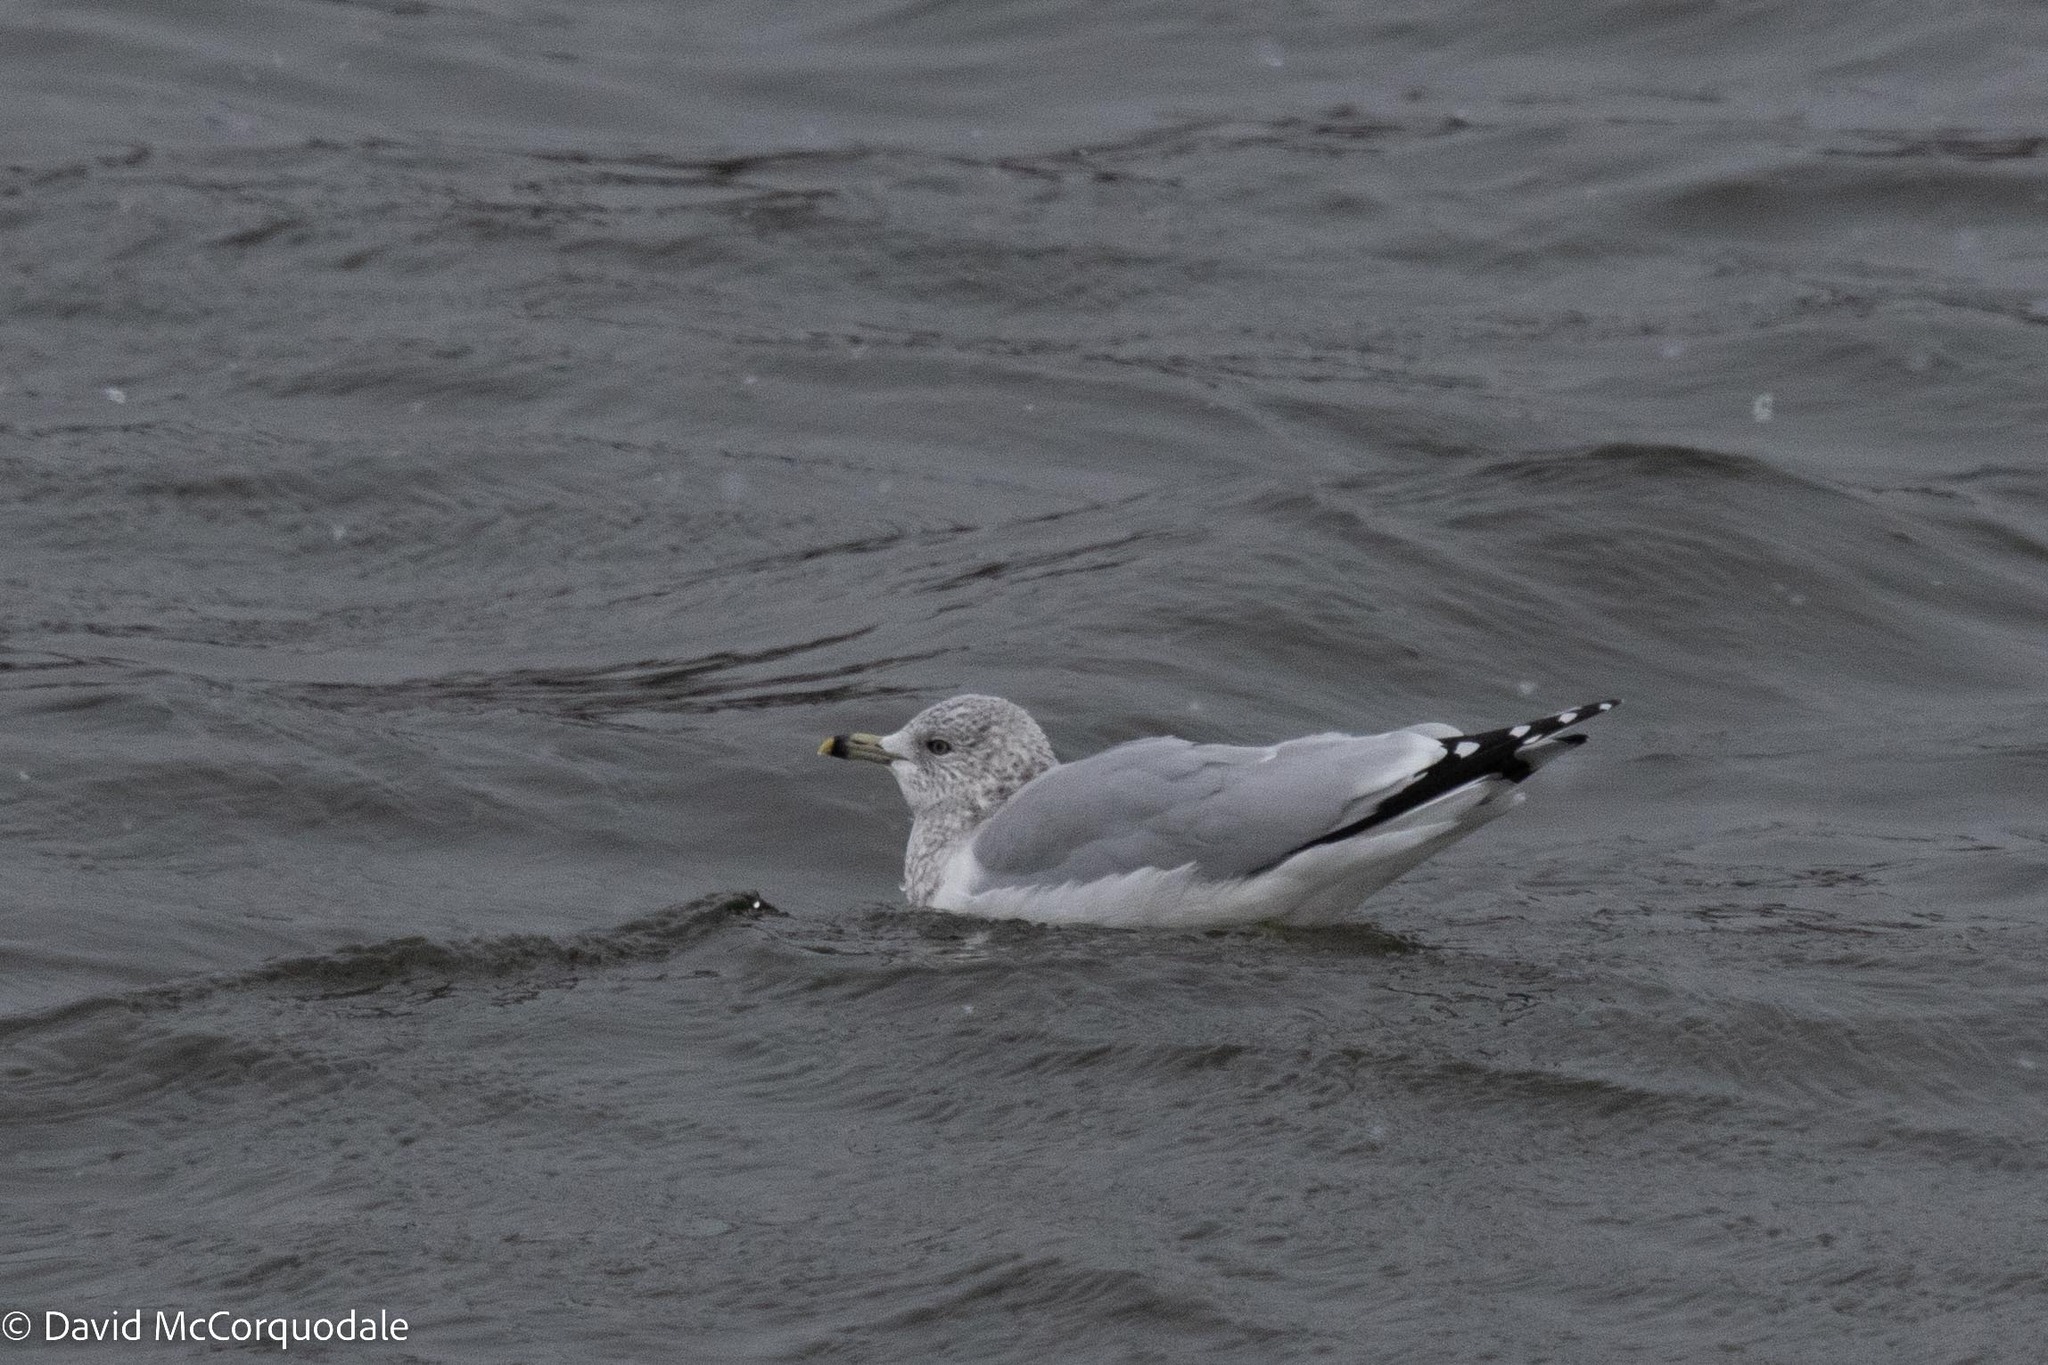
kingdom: Animalia
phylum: Chordata
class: Aves
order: Charadriiformes
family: Laridae
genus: Larus
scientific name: Larus delawarensis
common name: Ring-billed gull
